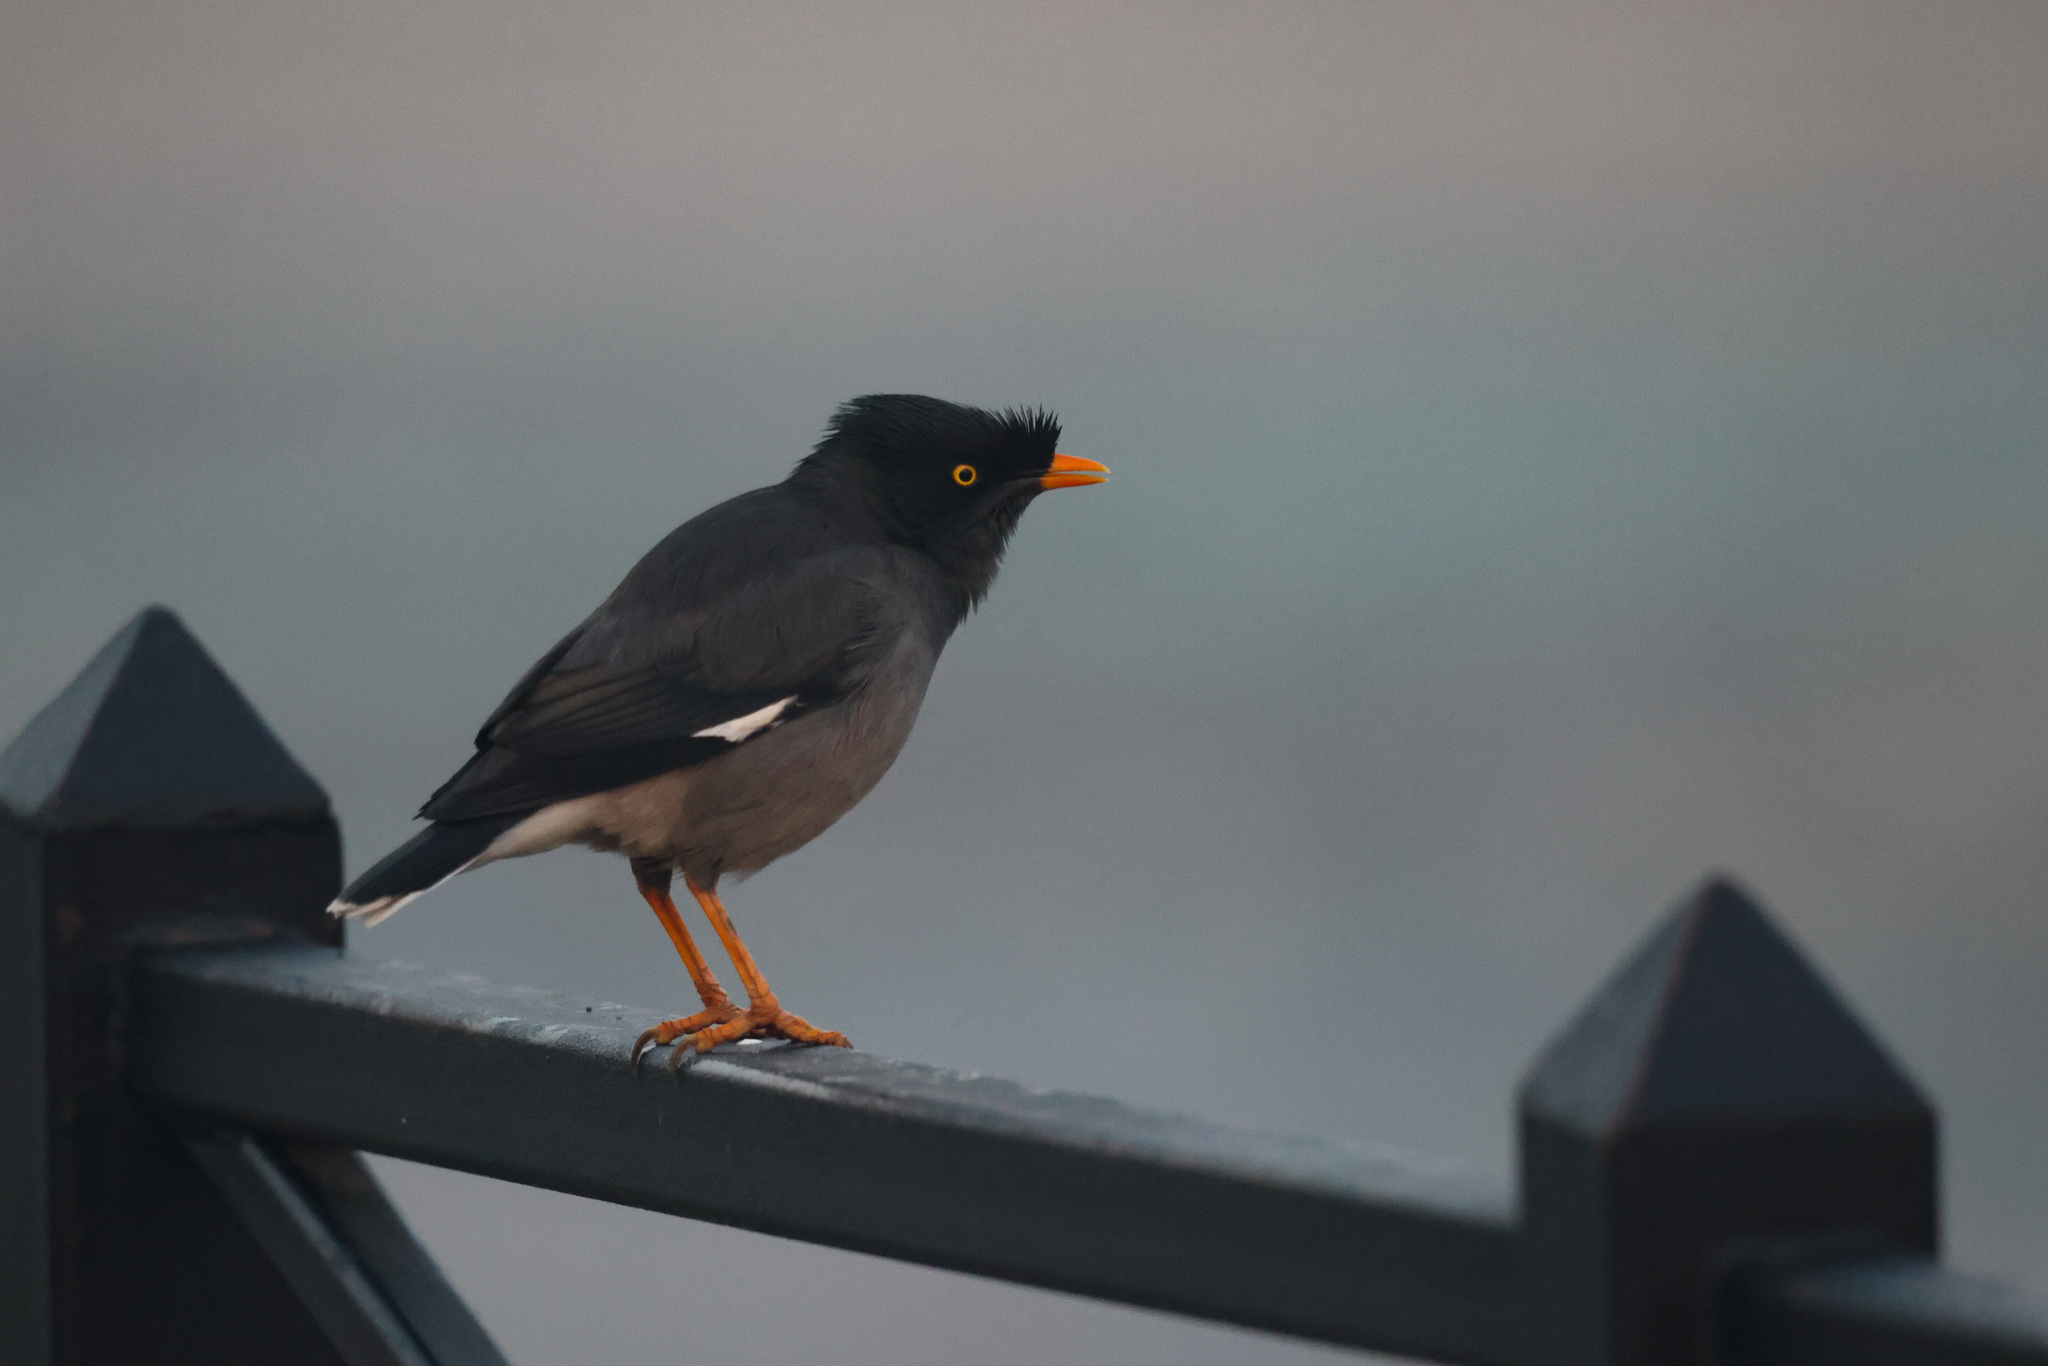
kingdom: Animalia
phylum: Chordata
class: Aves
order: Passeriformes
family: Sturnidae
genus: Acridotheres
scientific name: Acridotheres fuscus
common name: Jungle myna
